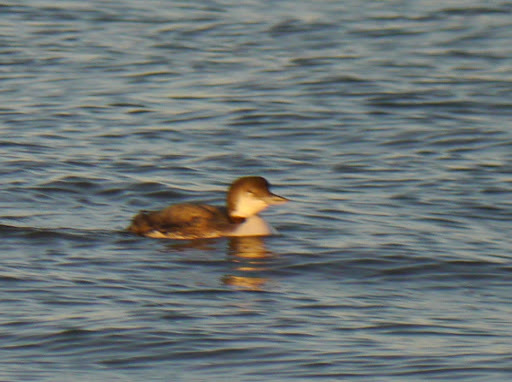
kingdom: Animalia
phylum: Chordata
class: Aves
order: Gaviiformes
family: Gaviidae
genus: Gavia
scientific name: Gavia immer
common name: Common loon
